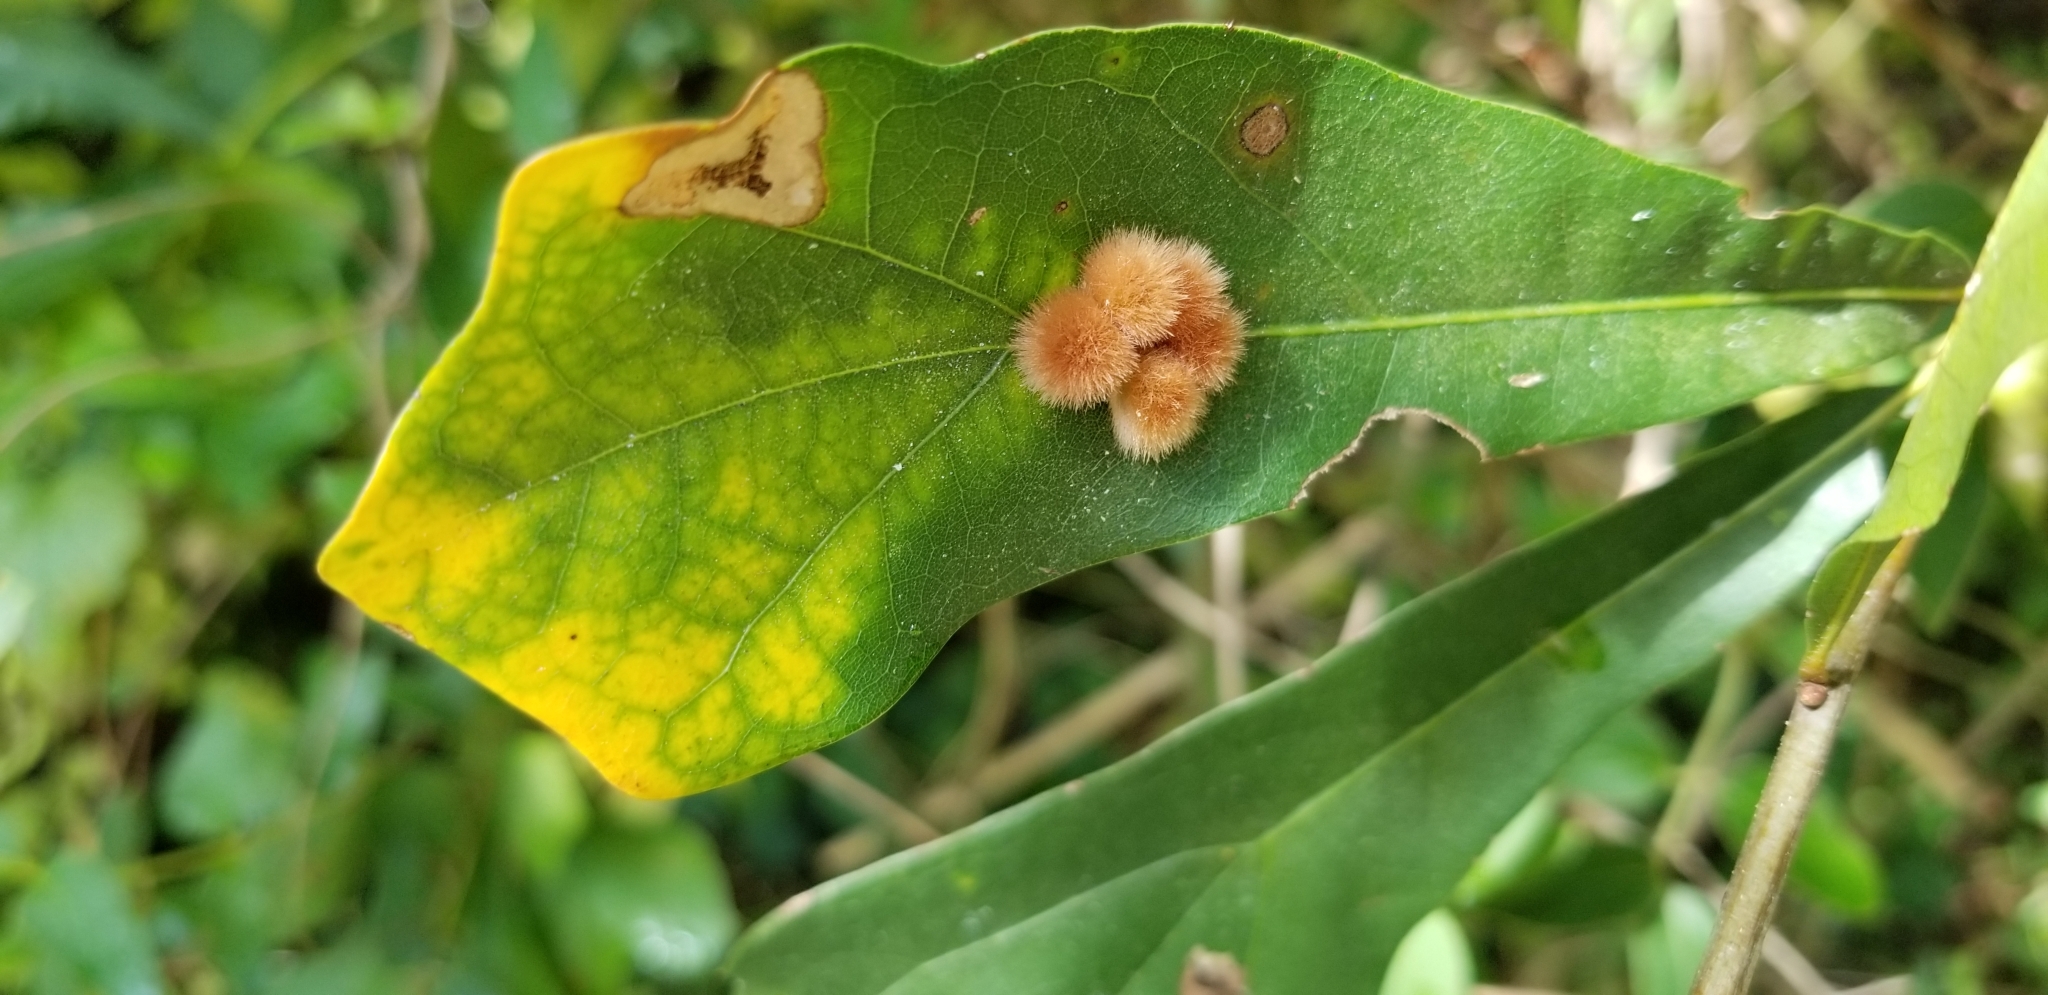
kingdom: Animalia
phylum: Arthropoda
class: Insecta
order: Hymenoptera
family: Cynipidae
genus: Callirhytis
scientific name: Callirhytis
